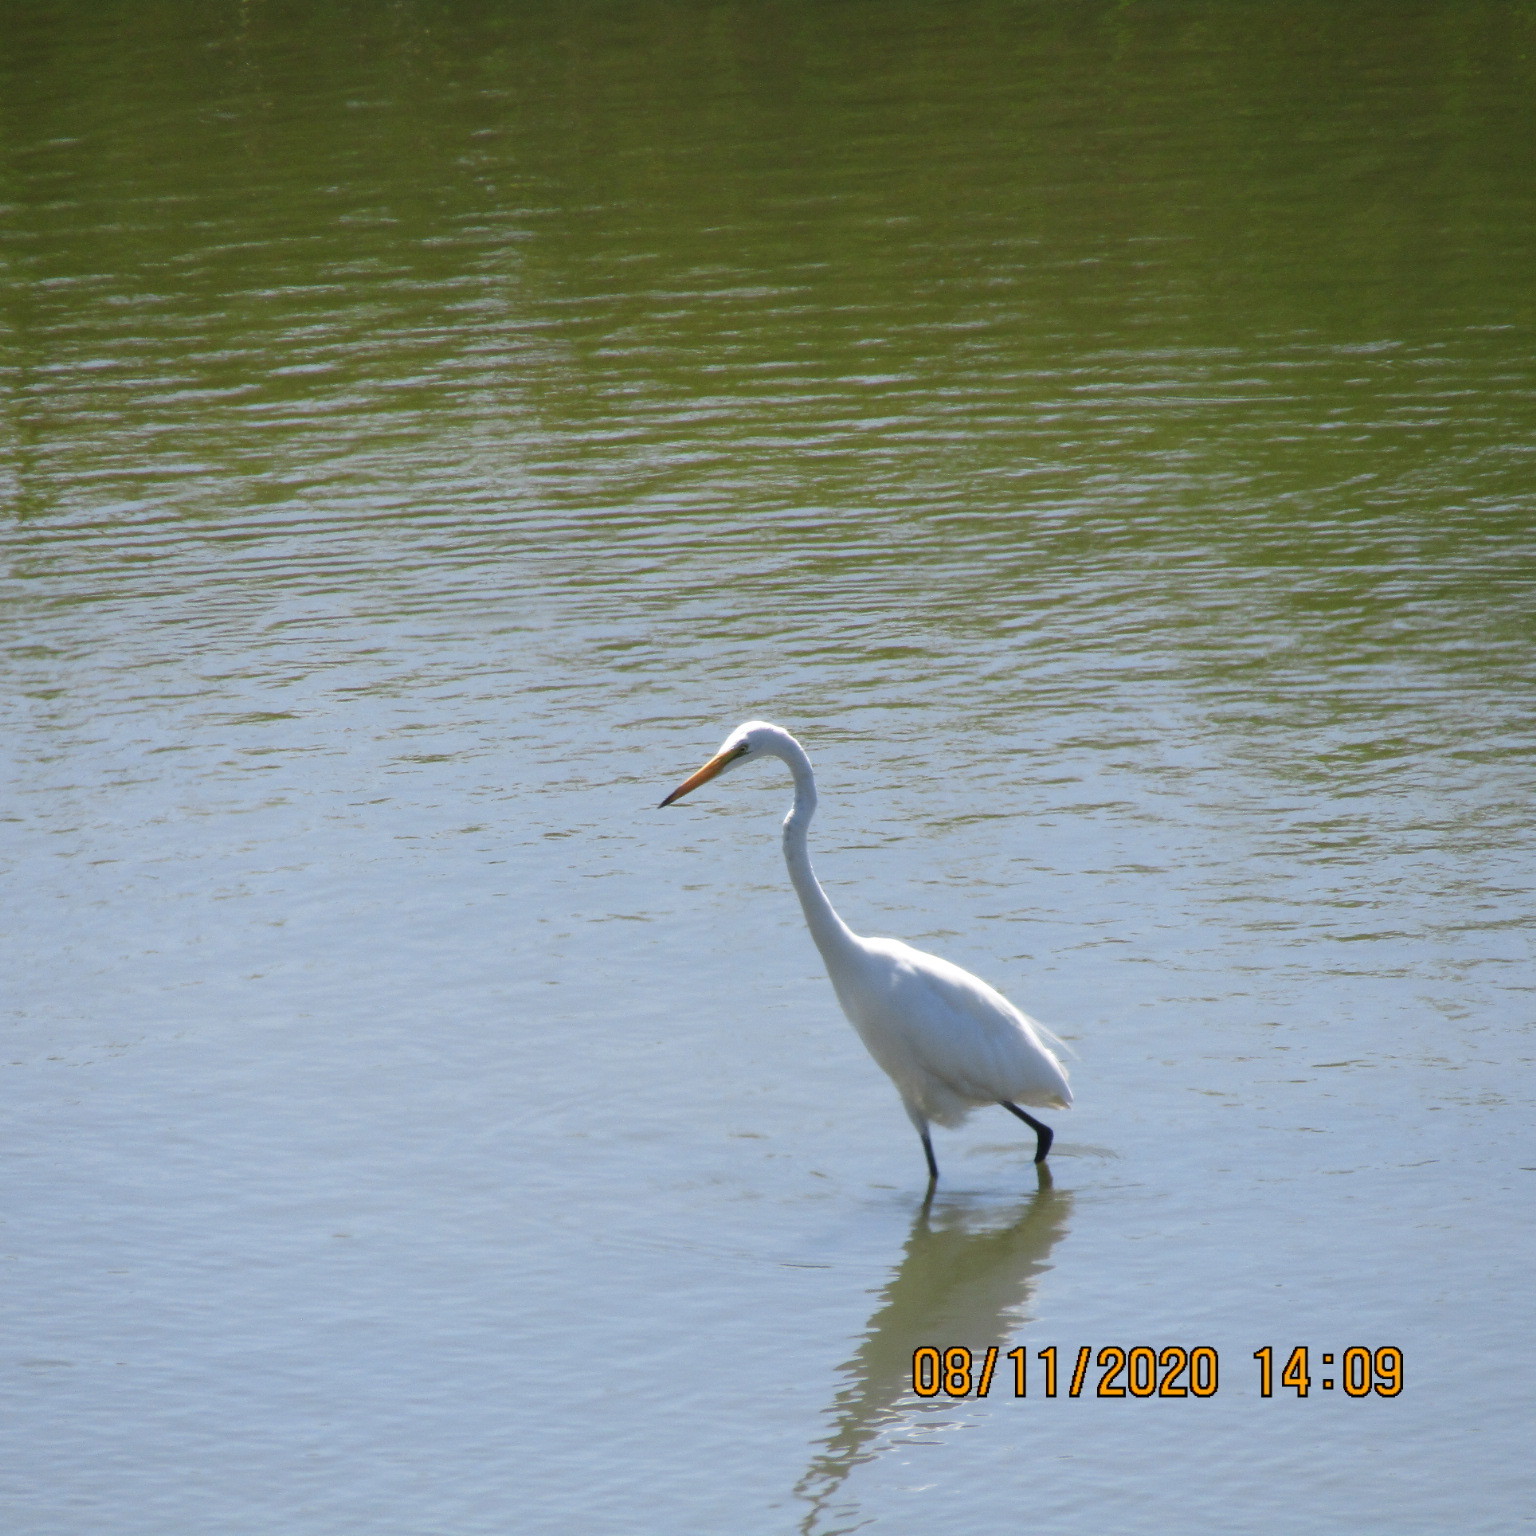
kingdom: Animalia
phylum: Chordata
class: Aves
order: Pelecaniformes
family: Ardeidae
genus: Ardea
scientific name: Ardea alba
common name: Great egret
